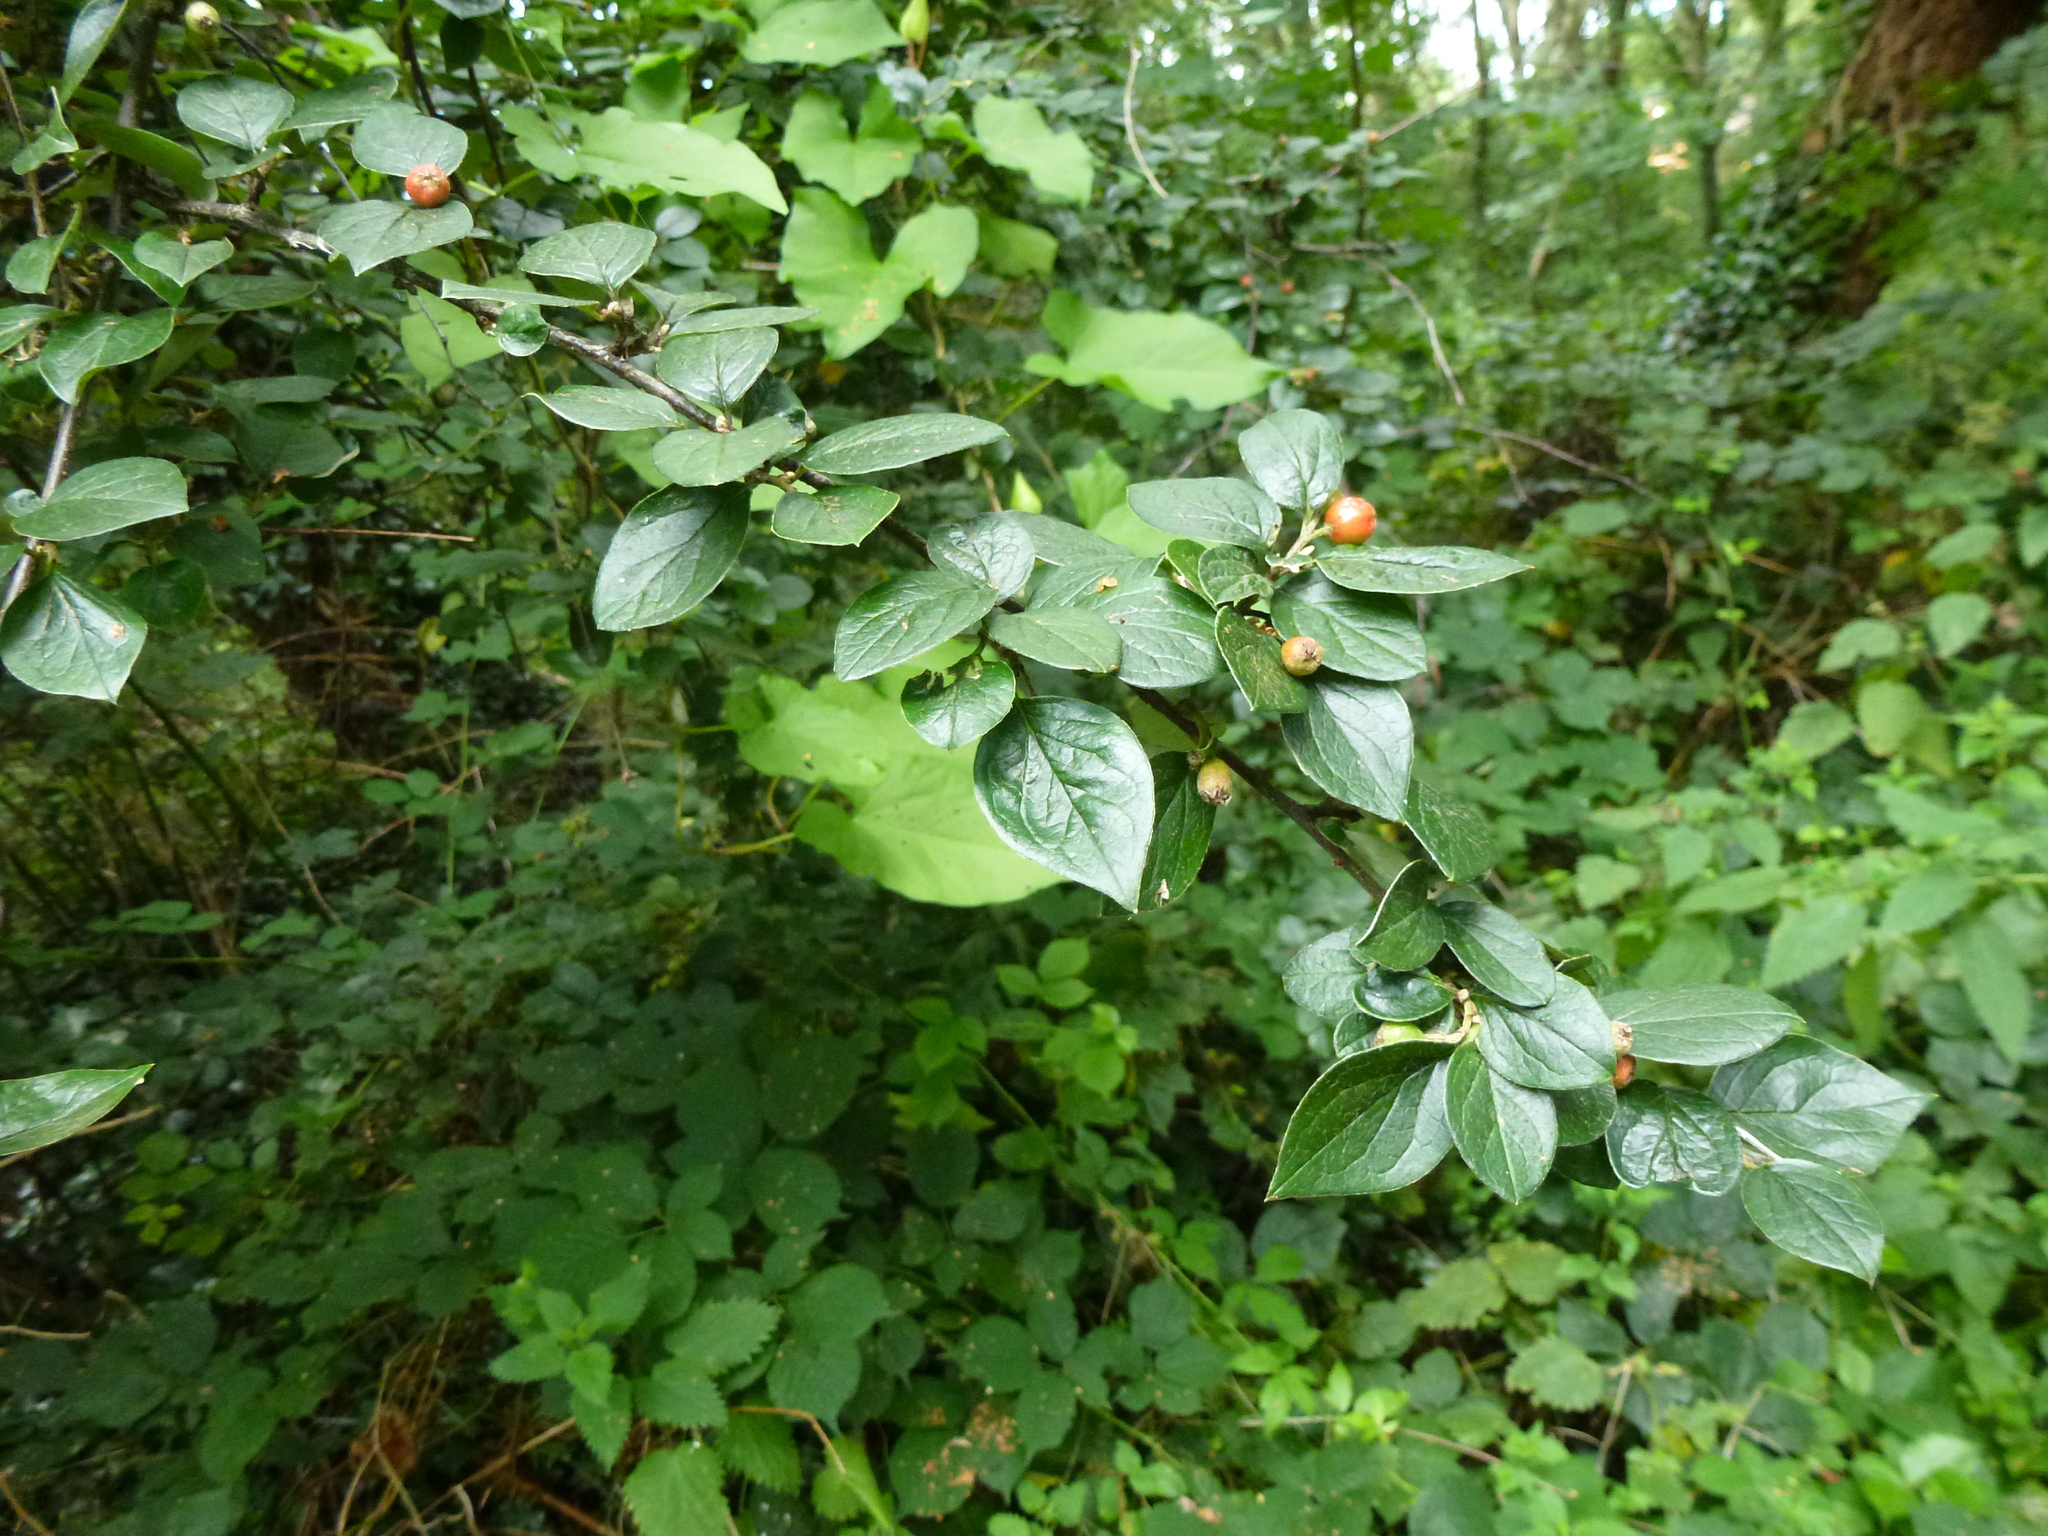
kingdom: Plantae
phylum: Tracheophyta
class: Magnoliopsida
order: Rosales
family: Rosaceae
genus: Cotoneaster
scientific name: Cotoneaster franchetii
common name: Franchet's cotoneaster
